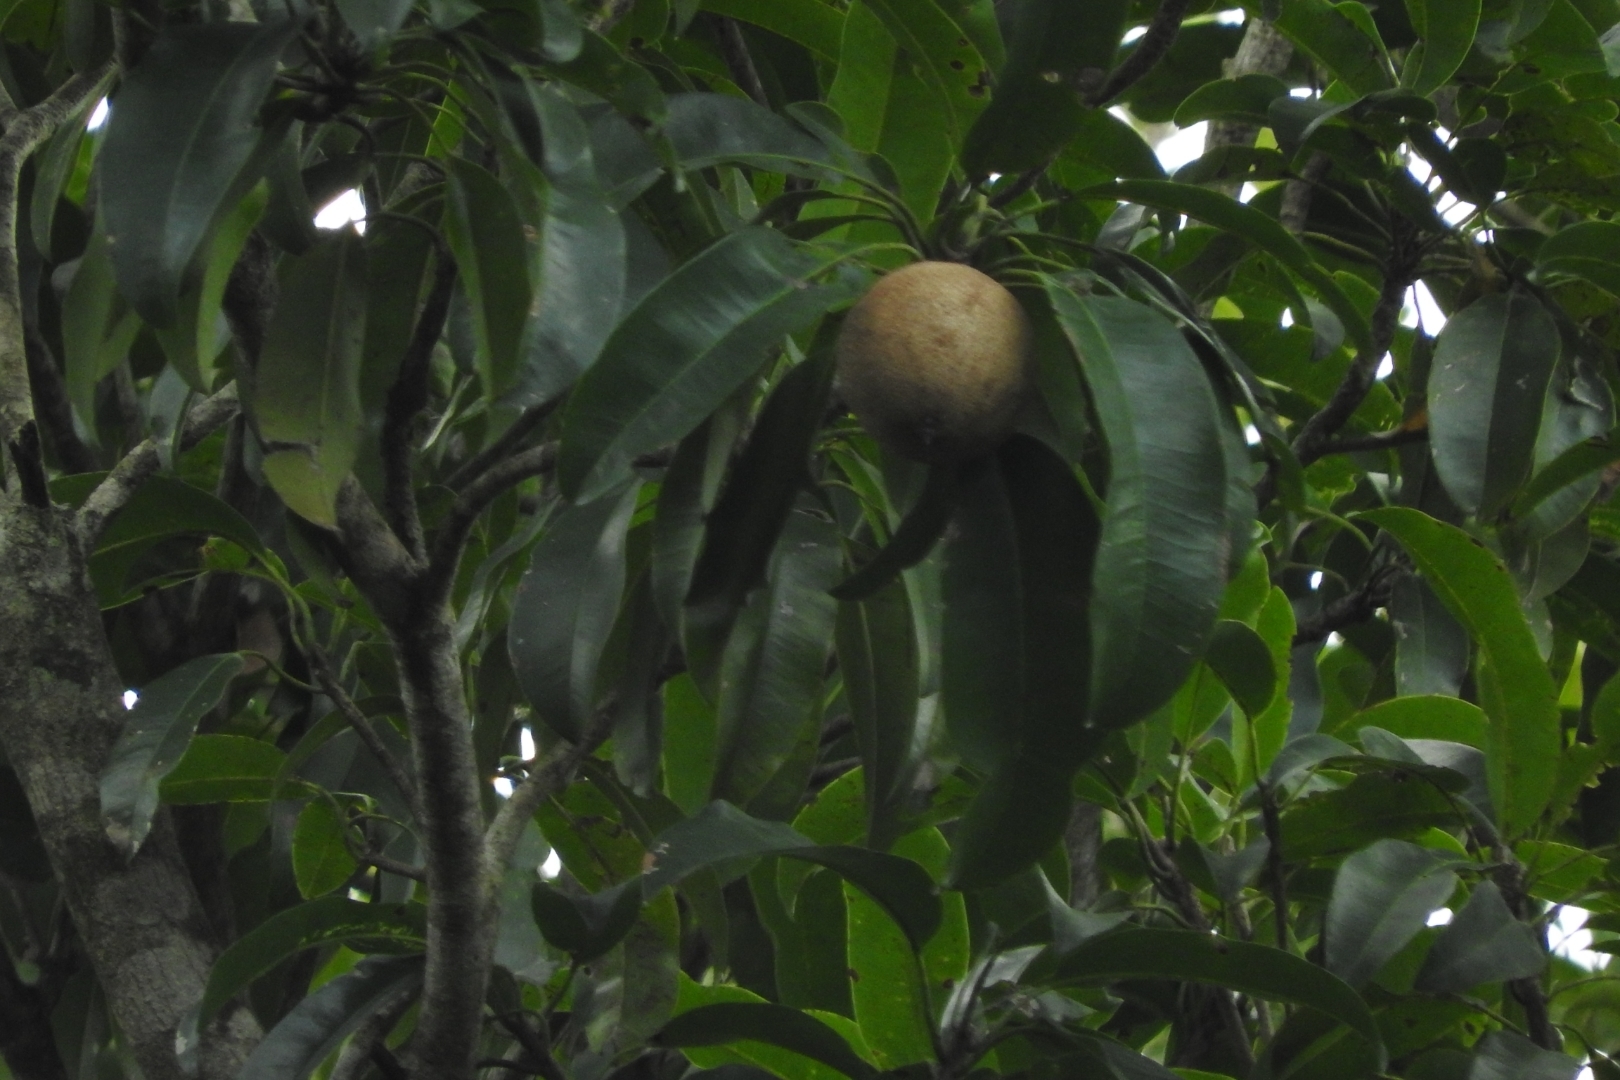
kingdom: Plantae
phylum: Tracheophyta
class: Magnoliopsida
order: Ericales
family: Sapotaceae
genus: Manilkara
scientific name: Manilkara zapota
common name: Sapodilla
